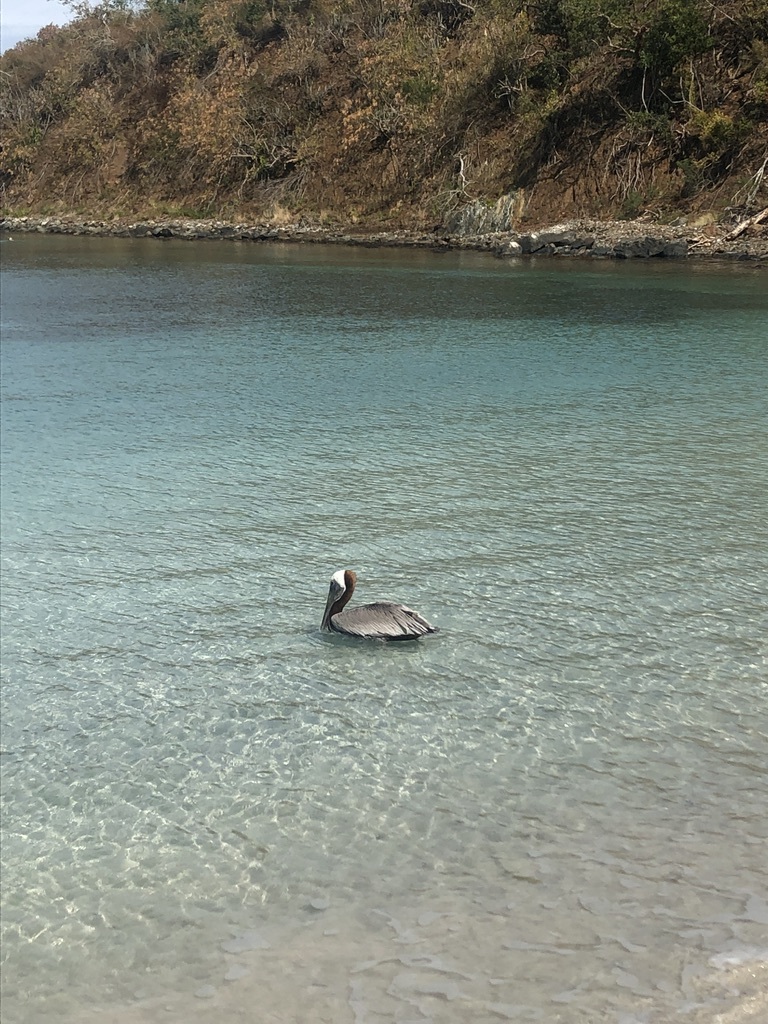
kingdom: Animalia
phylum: Chordata
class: Aves
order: Pelecaniformes
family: Pelecanidae
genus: Pelecanus
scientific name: Pelecanus occidentalis
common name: Brown pelican
